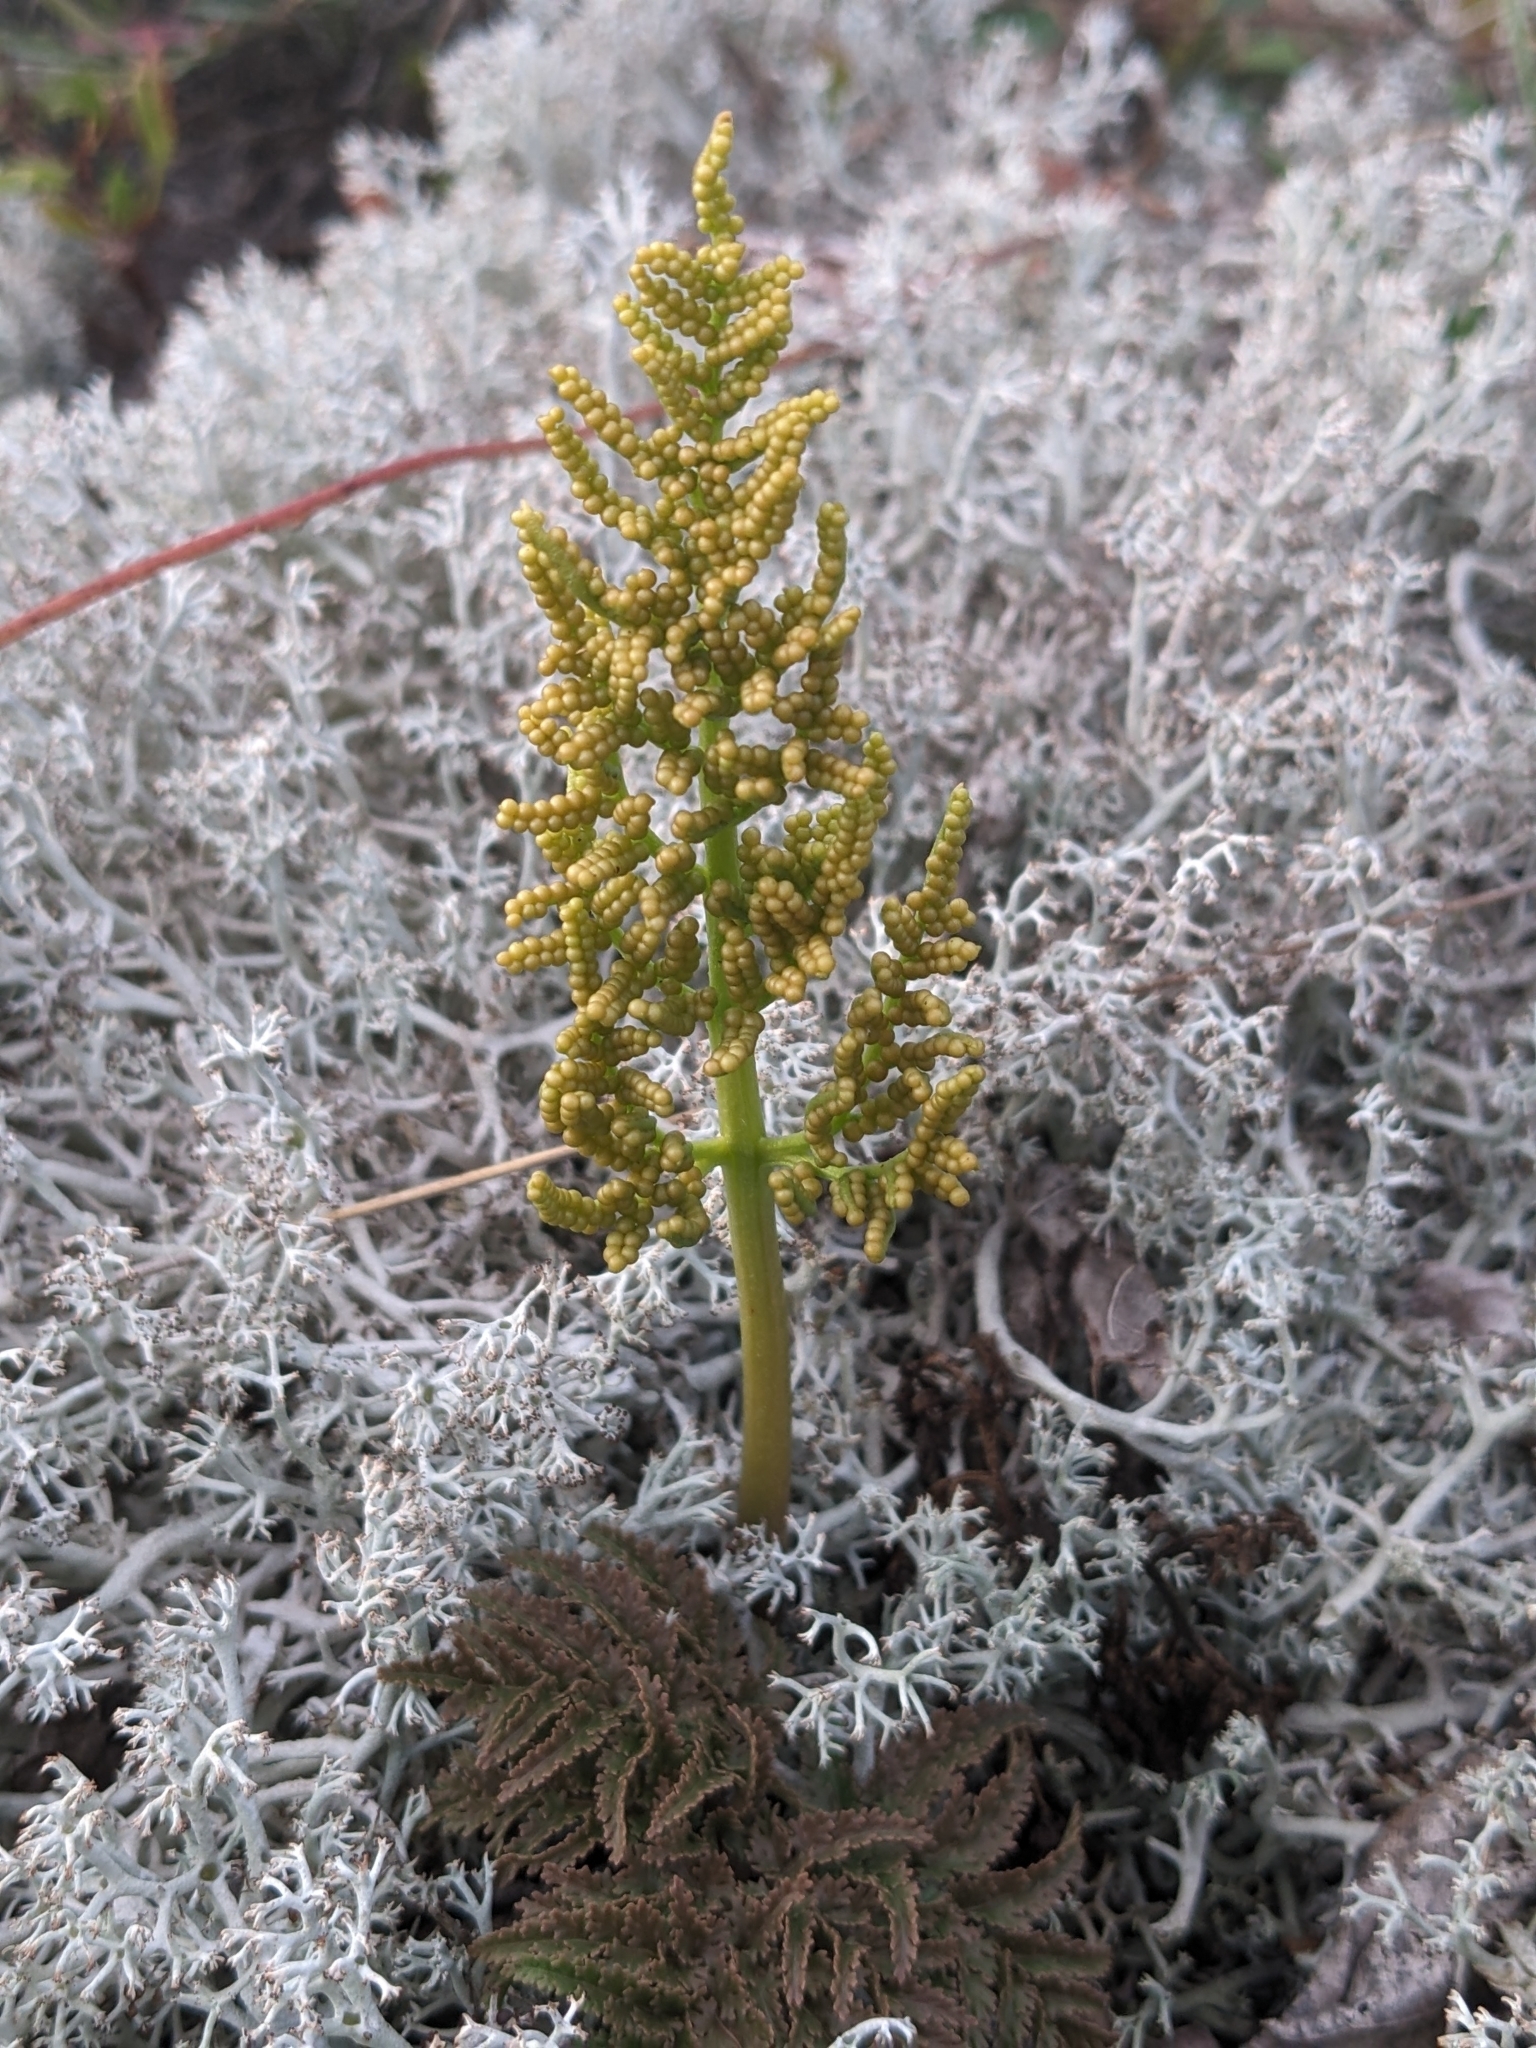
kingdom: Plantae
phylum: Tracheophyta
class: Polypodiopsida
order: Ophioglossales
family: Ophioglossaceae
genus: Sceptridium
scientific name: Sceptridium multifidum
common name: Leathery grape fern
